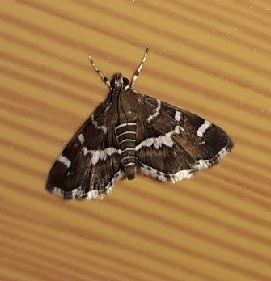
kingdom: Animalia
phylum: Arthropoda
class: Insecta
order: Lepidoptera
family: Crambidae
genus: Hymenia
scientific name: Hymenia perspectalis
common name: Spotted beet webworm
